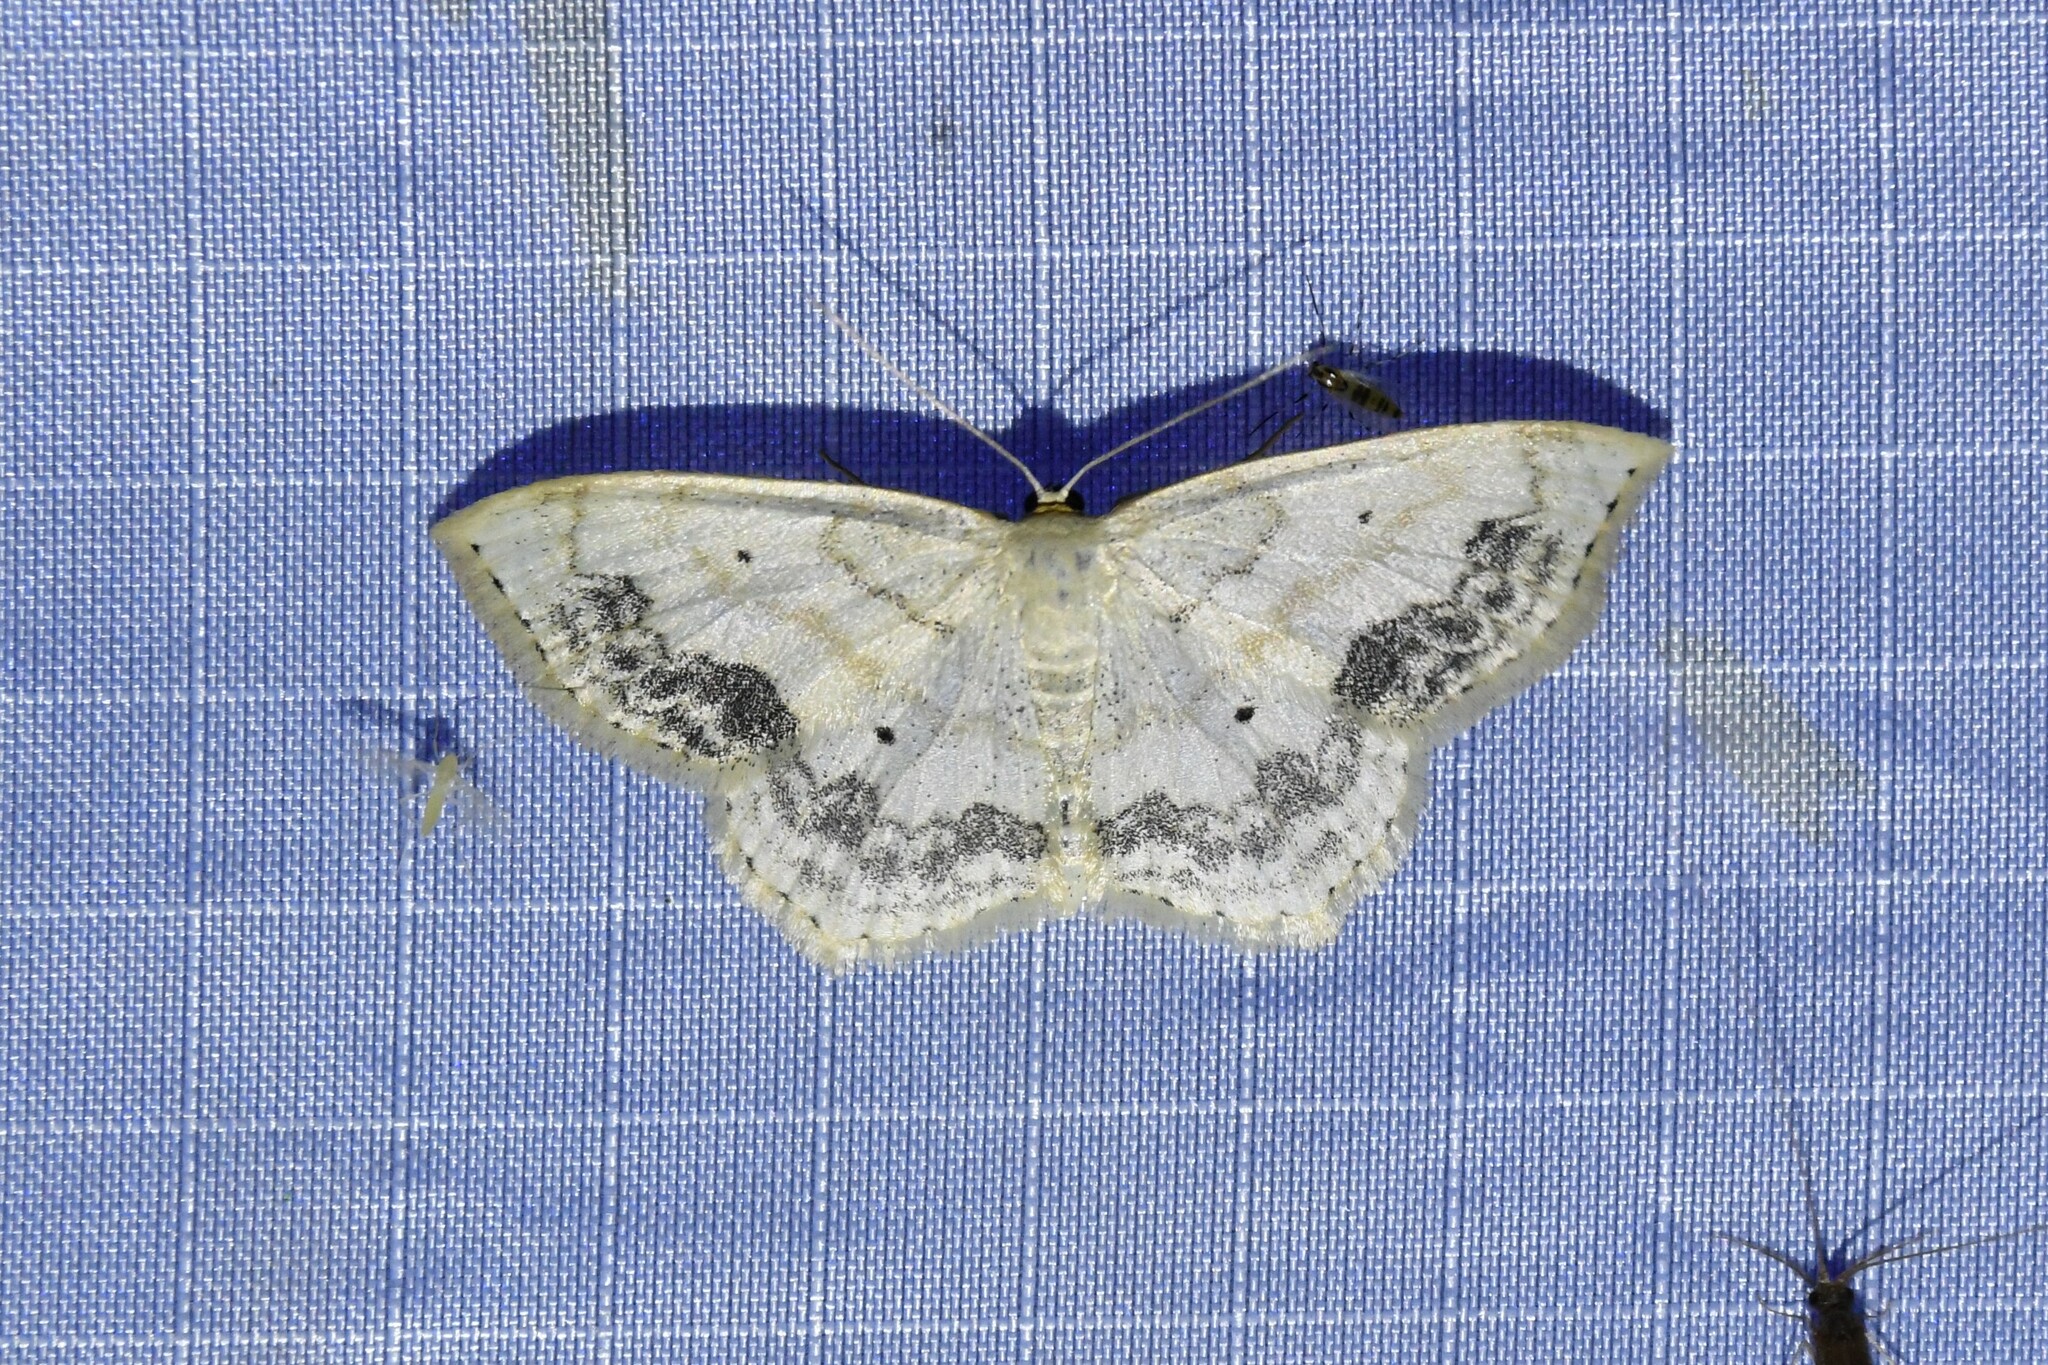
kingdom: Animalia
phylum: Arthropoda
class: Insecta
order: Lepidoptera
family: Geometridae
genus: Scopula
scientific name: Scopula limboundata
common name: Large lace border
